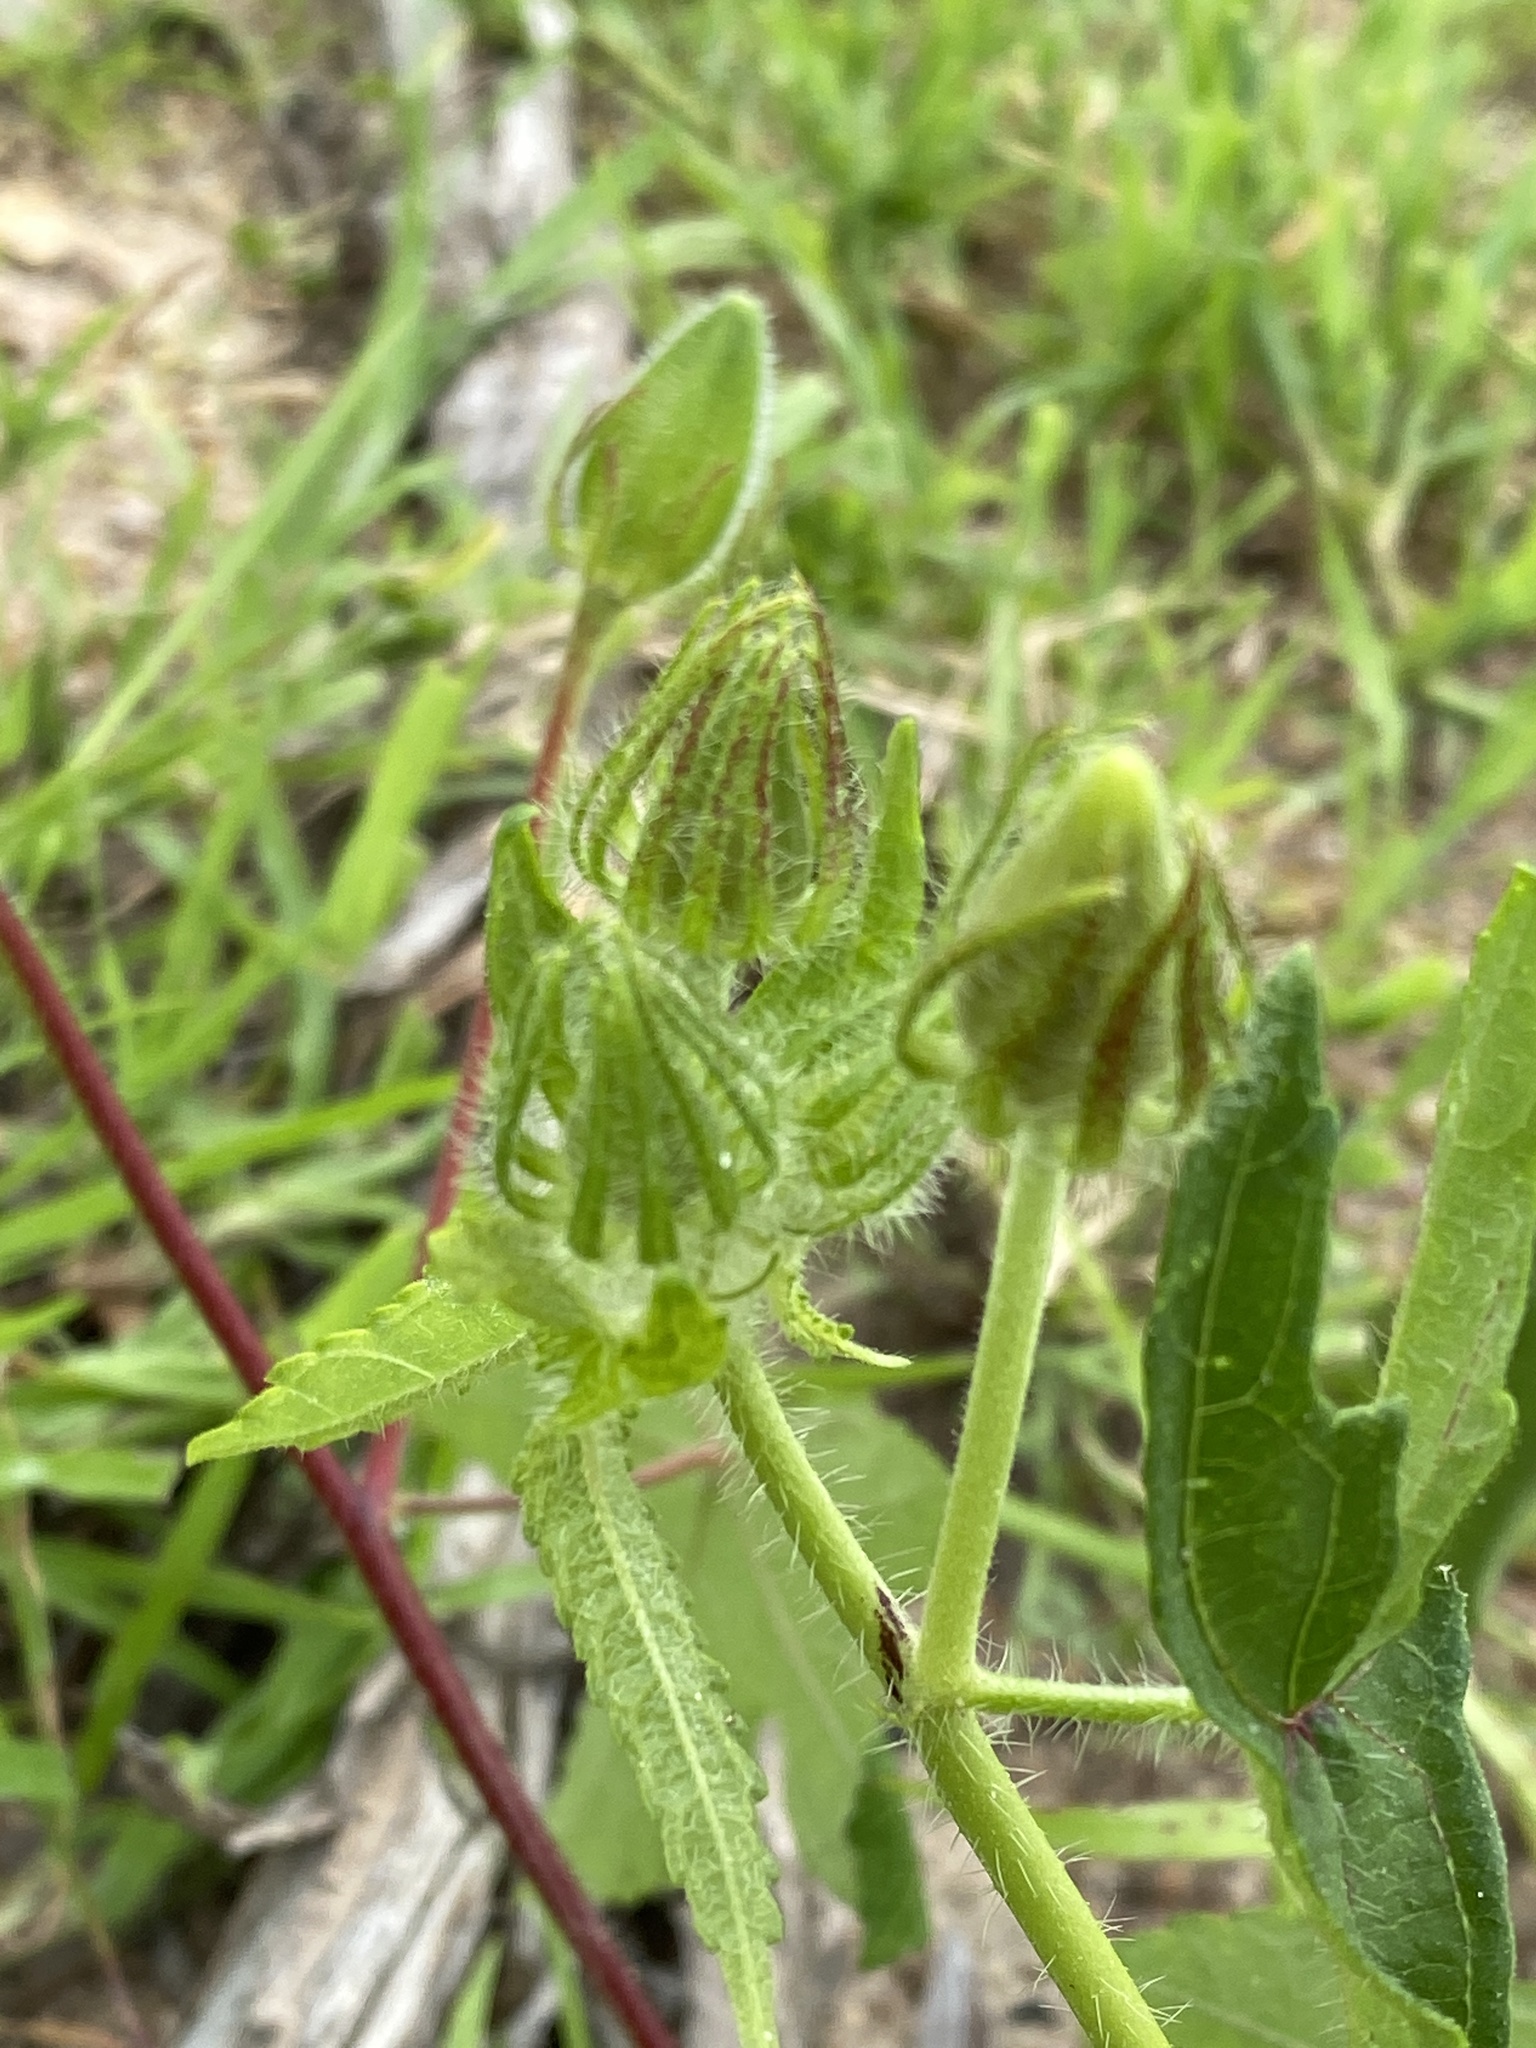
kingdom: Plantae
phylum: Tracheophyta
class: Magnoliopsida
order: Malvales
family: Malvaceae
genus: Abelmoschus
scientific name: Abelmoschus sagittifolius
